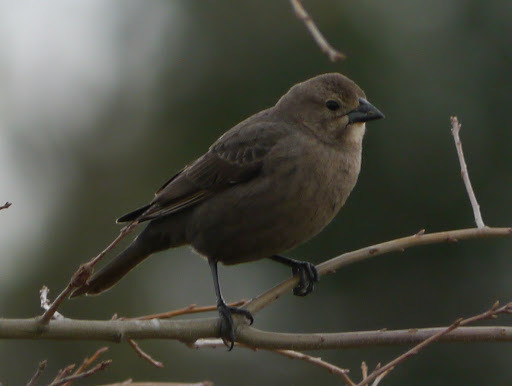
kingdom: Animalia
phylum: Chordata
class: Aves
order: Passeriformes
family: Icteridae
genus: Molothrus
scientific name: Molothrus ater
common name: Brown-headed cowbird
